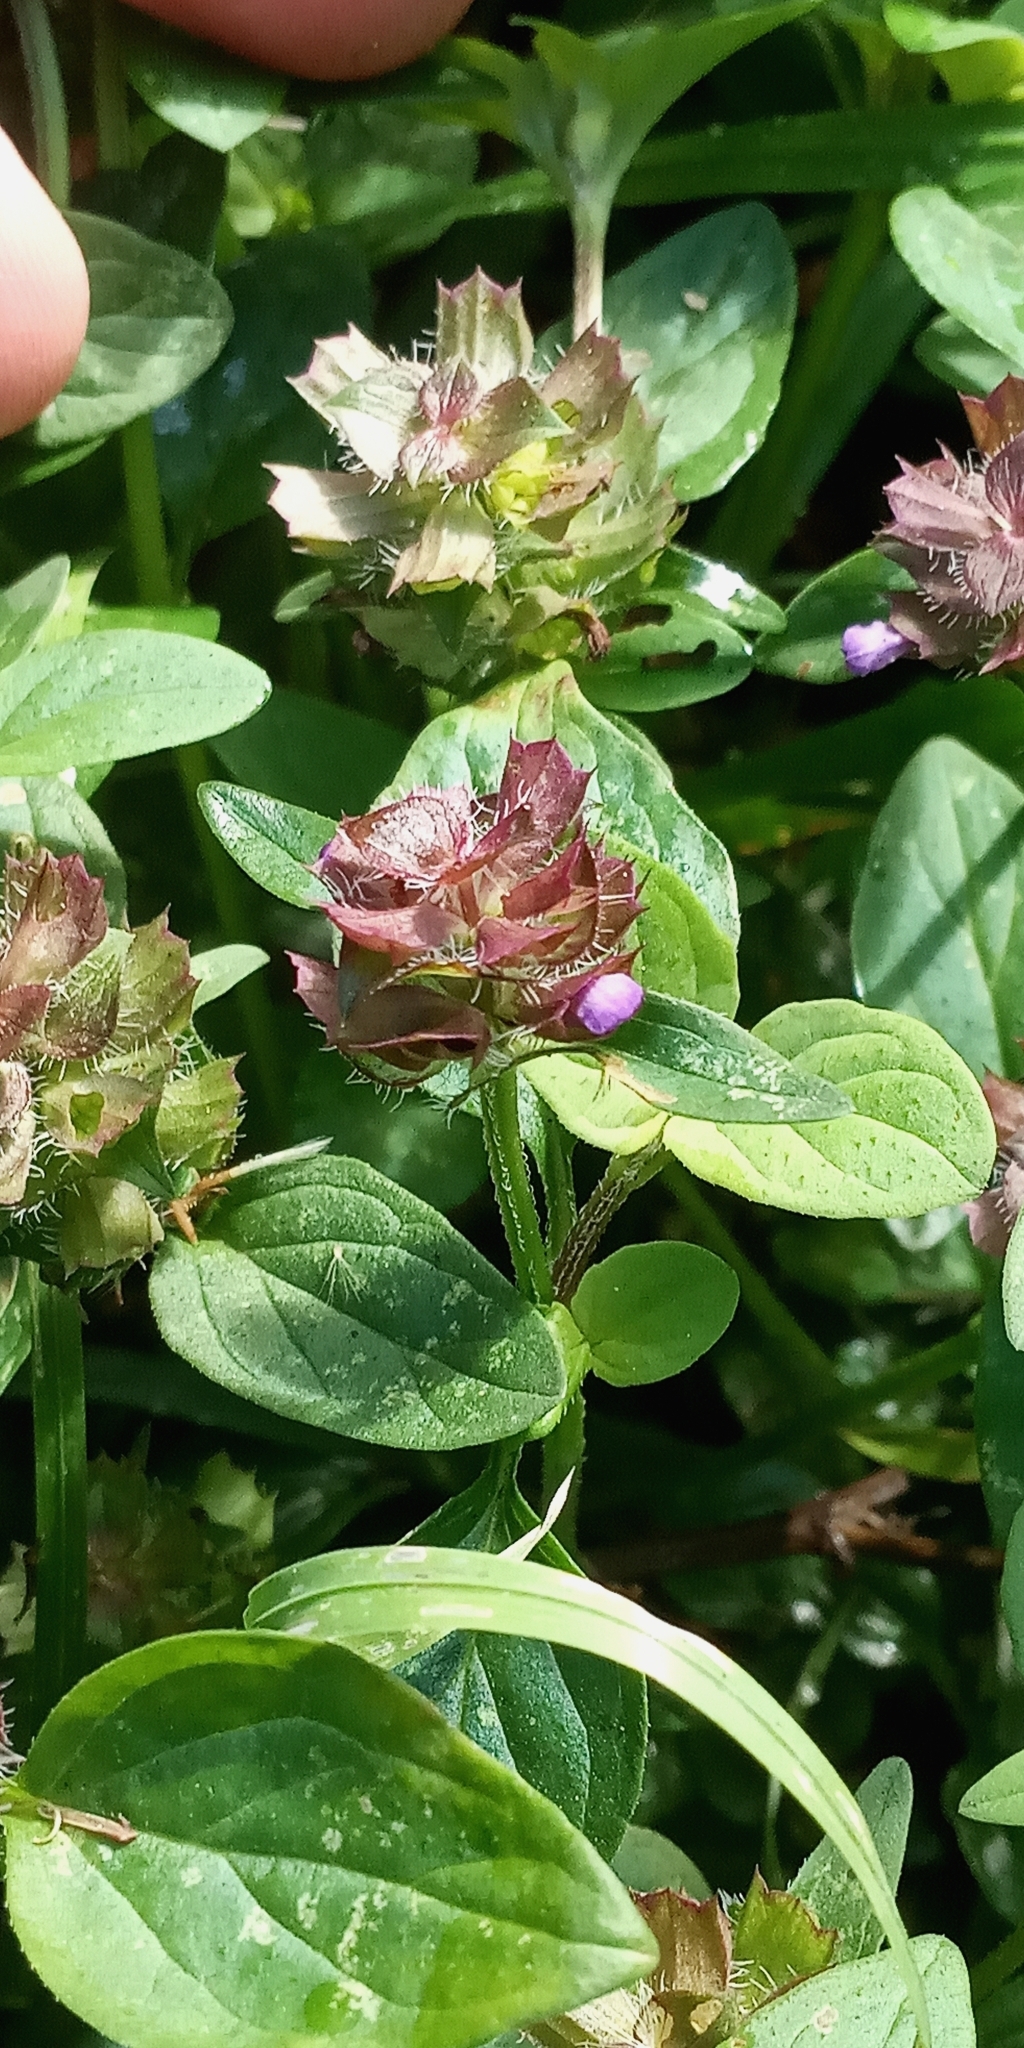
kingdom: Plantae
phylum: Tracheophyta
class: Magnoliopsida
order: Lamiales
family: Lamiaceae
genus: Prunella
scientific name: Prunella vulgaris
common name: Heal-all
